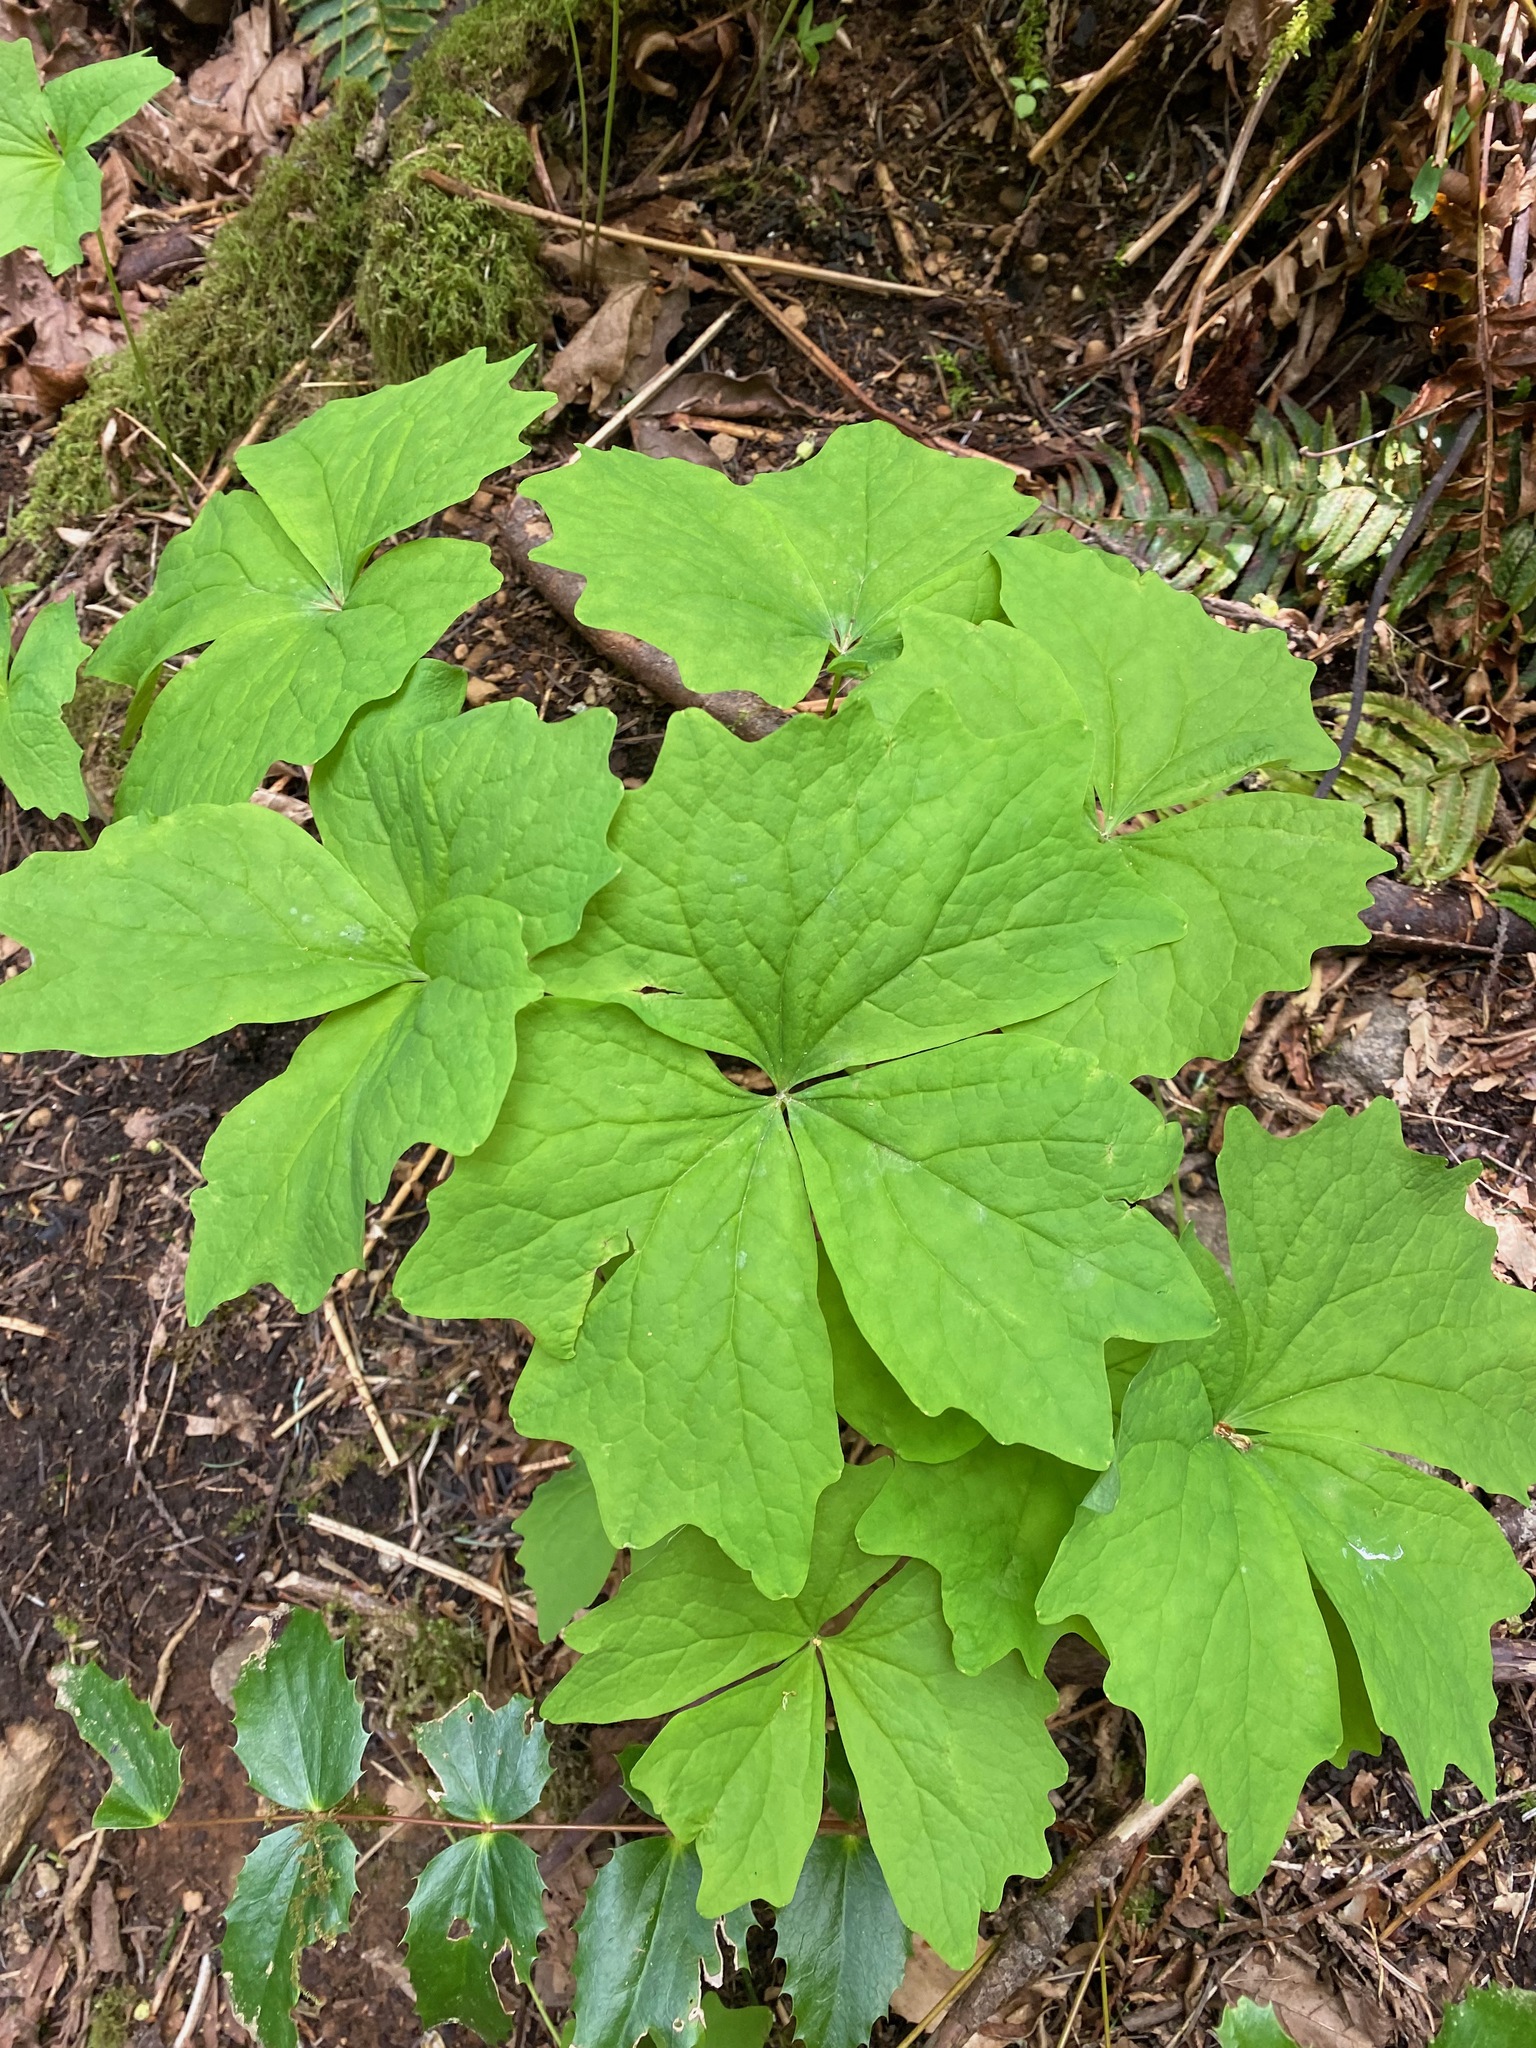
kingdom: Plantae
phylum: Tracheophyta
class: Magnoliopsida
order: Ranunculales
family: Berberidaceae
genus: Achlys
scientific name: Achlys triphylla
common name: Vanilla-leaf
